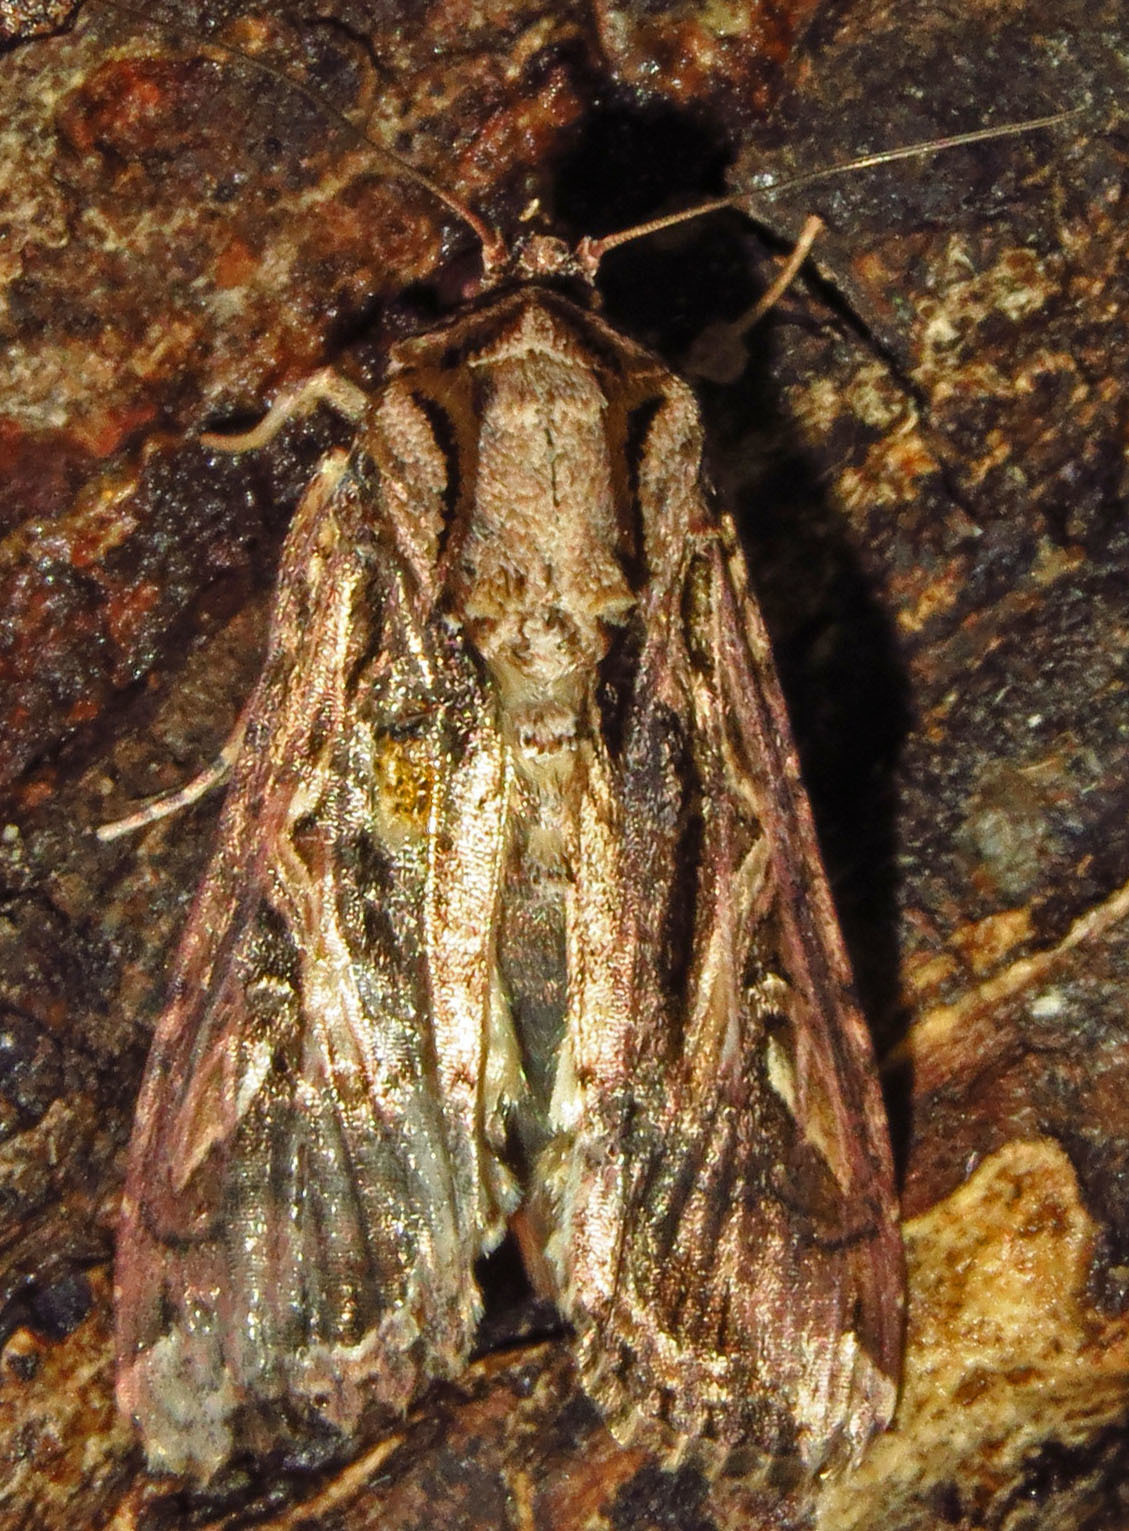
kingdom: Animalia
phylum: Arthropoda
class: Insecta
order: Lepidoptera
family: Noctuidae
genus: Spodoptera
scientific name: Spodoptera dolichos
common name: Sweetpotato armyworm
